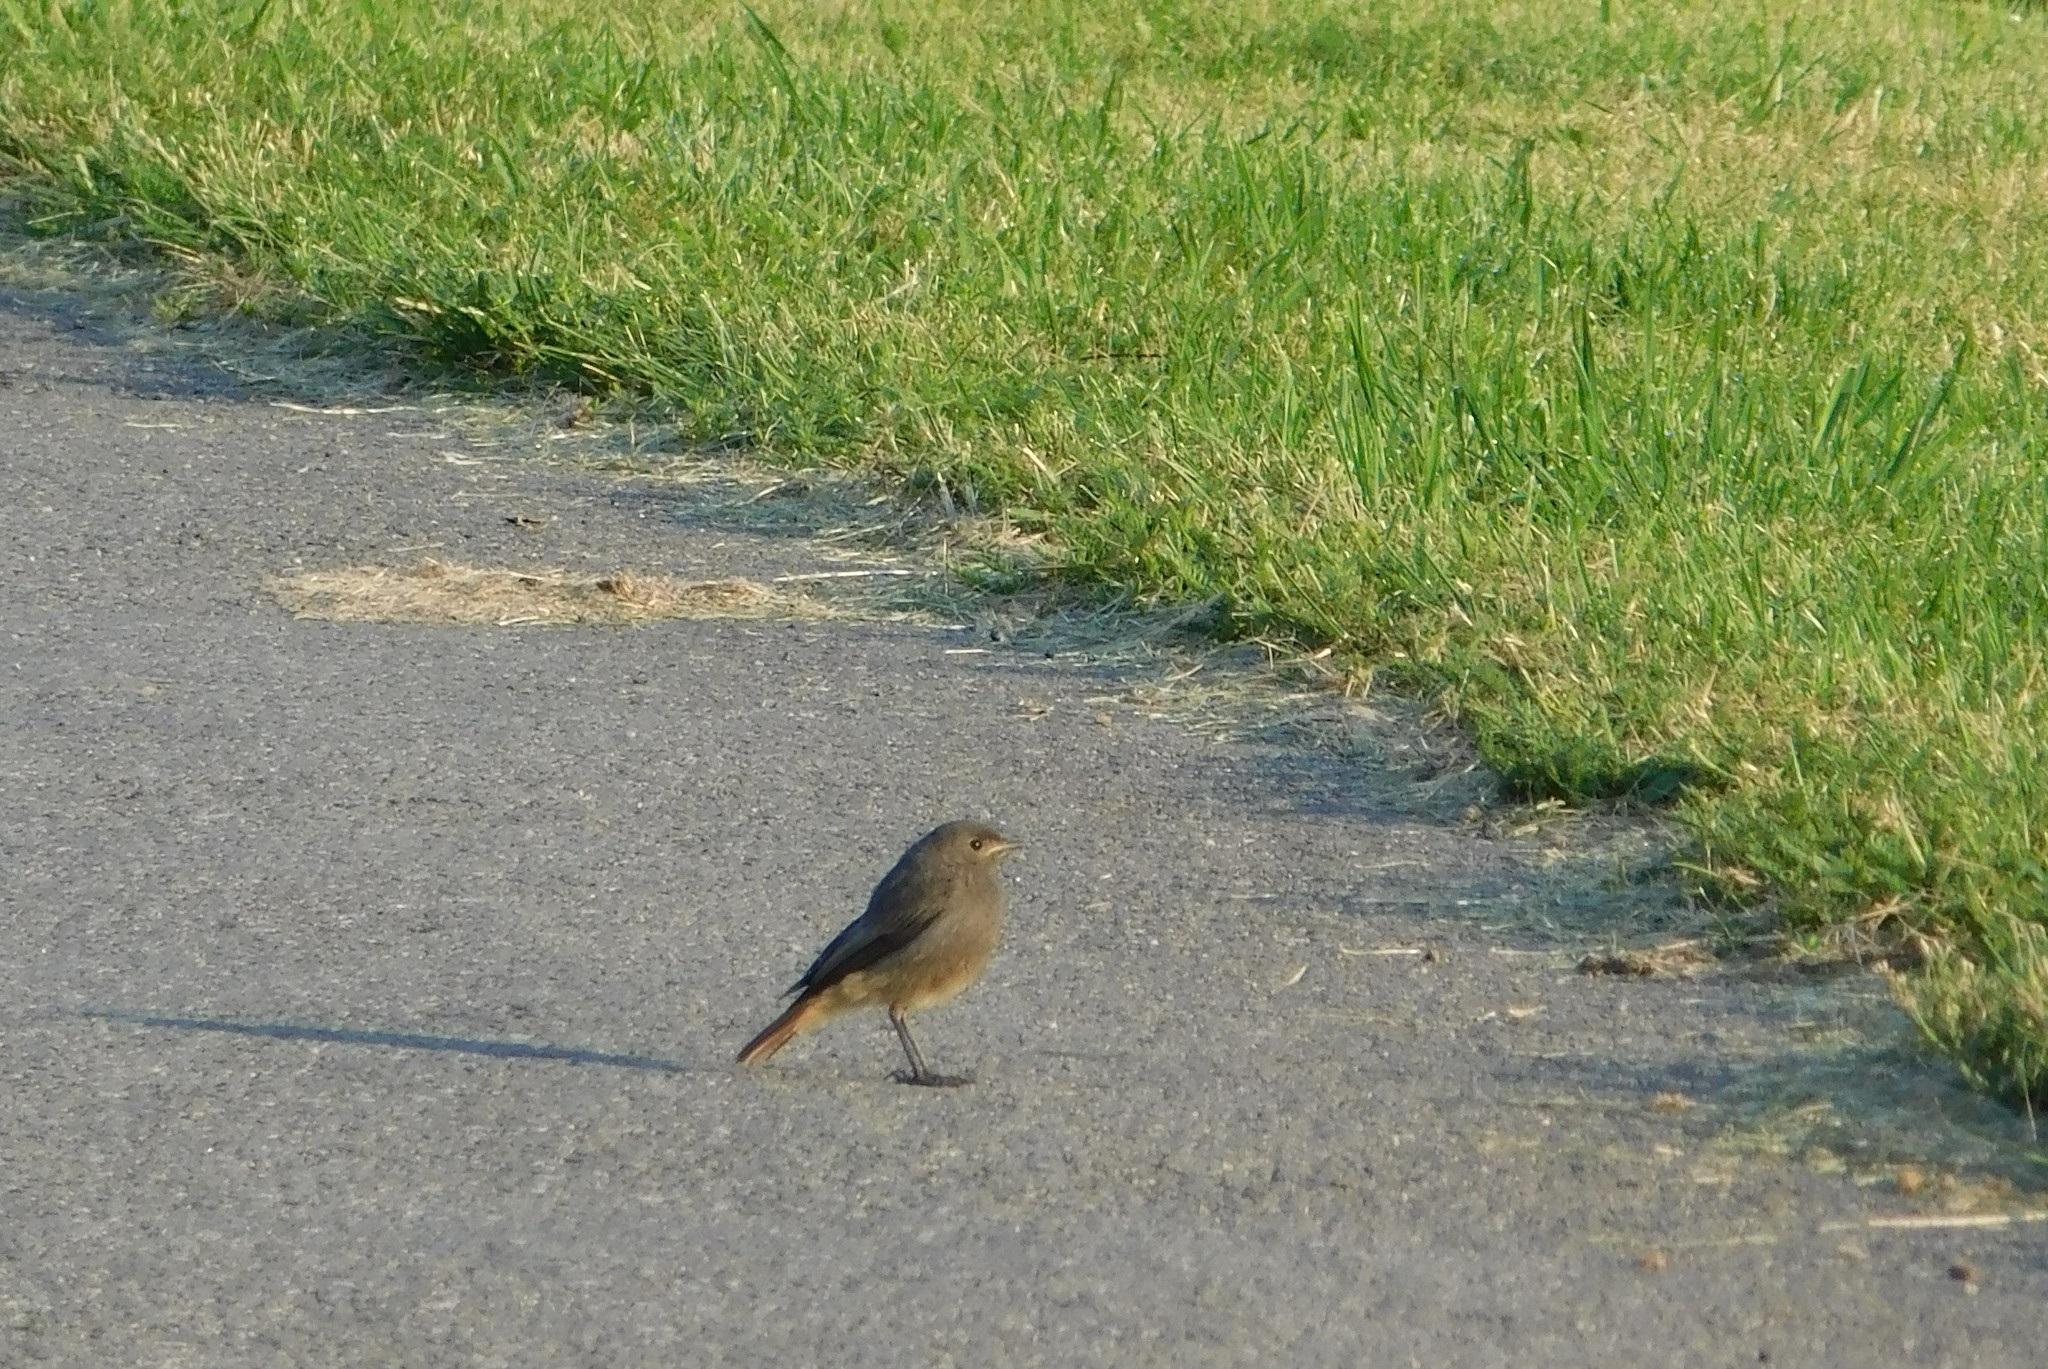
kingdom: Animalia
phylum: Chordata
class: Aves
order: Passeriformes
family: Muscicapidae
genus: Phoenicurus
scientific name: Phoenicurus ochruros
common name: Black redstart
